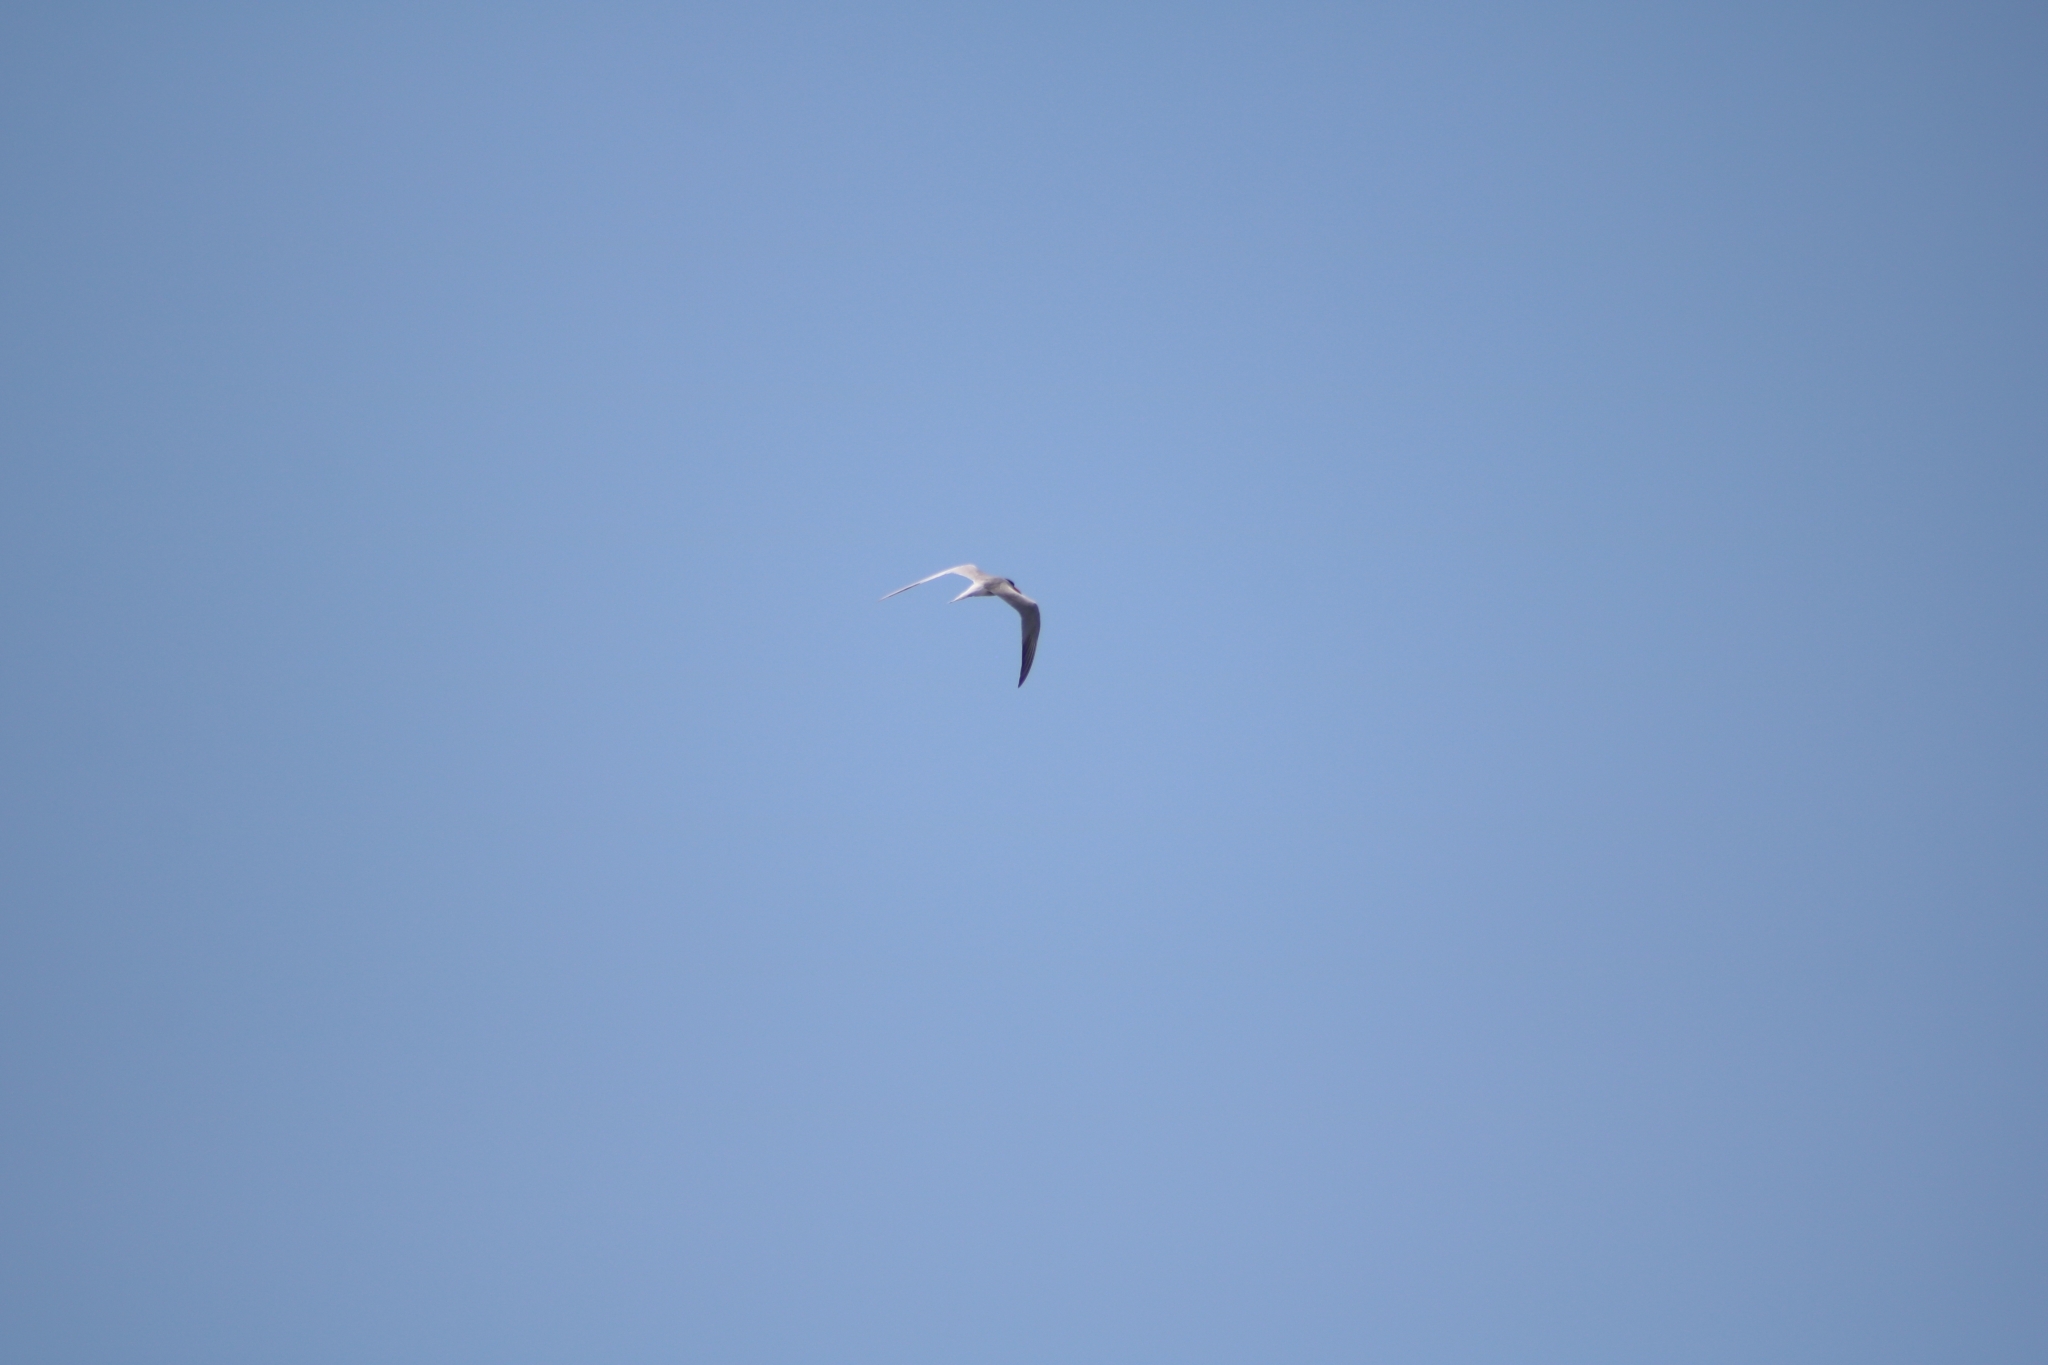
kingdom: Animalia
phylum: Chordata
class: Aves
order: Charadriiformes
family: Laridae
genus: Sterna
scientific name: Sterna hirundo
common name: Common tern
